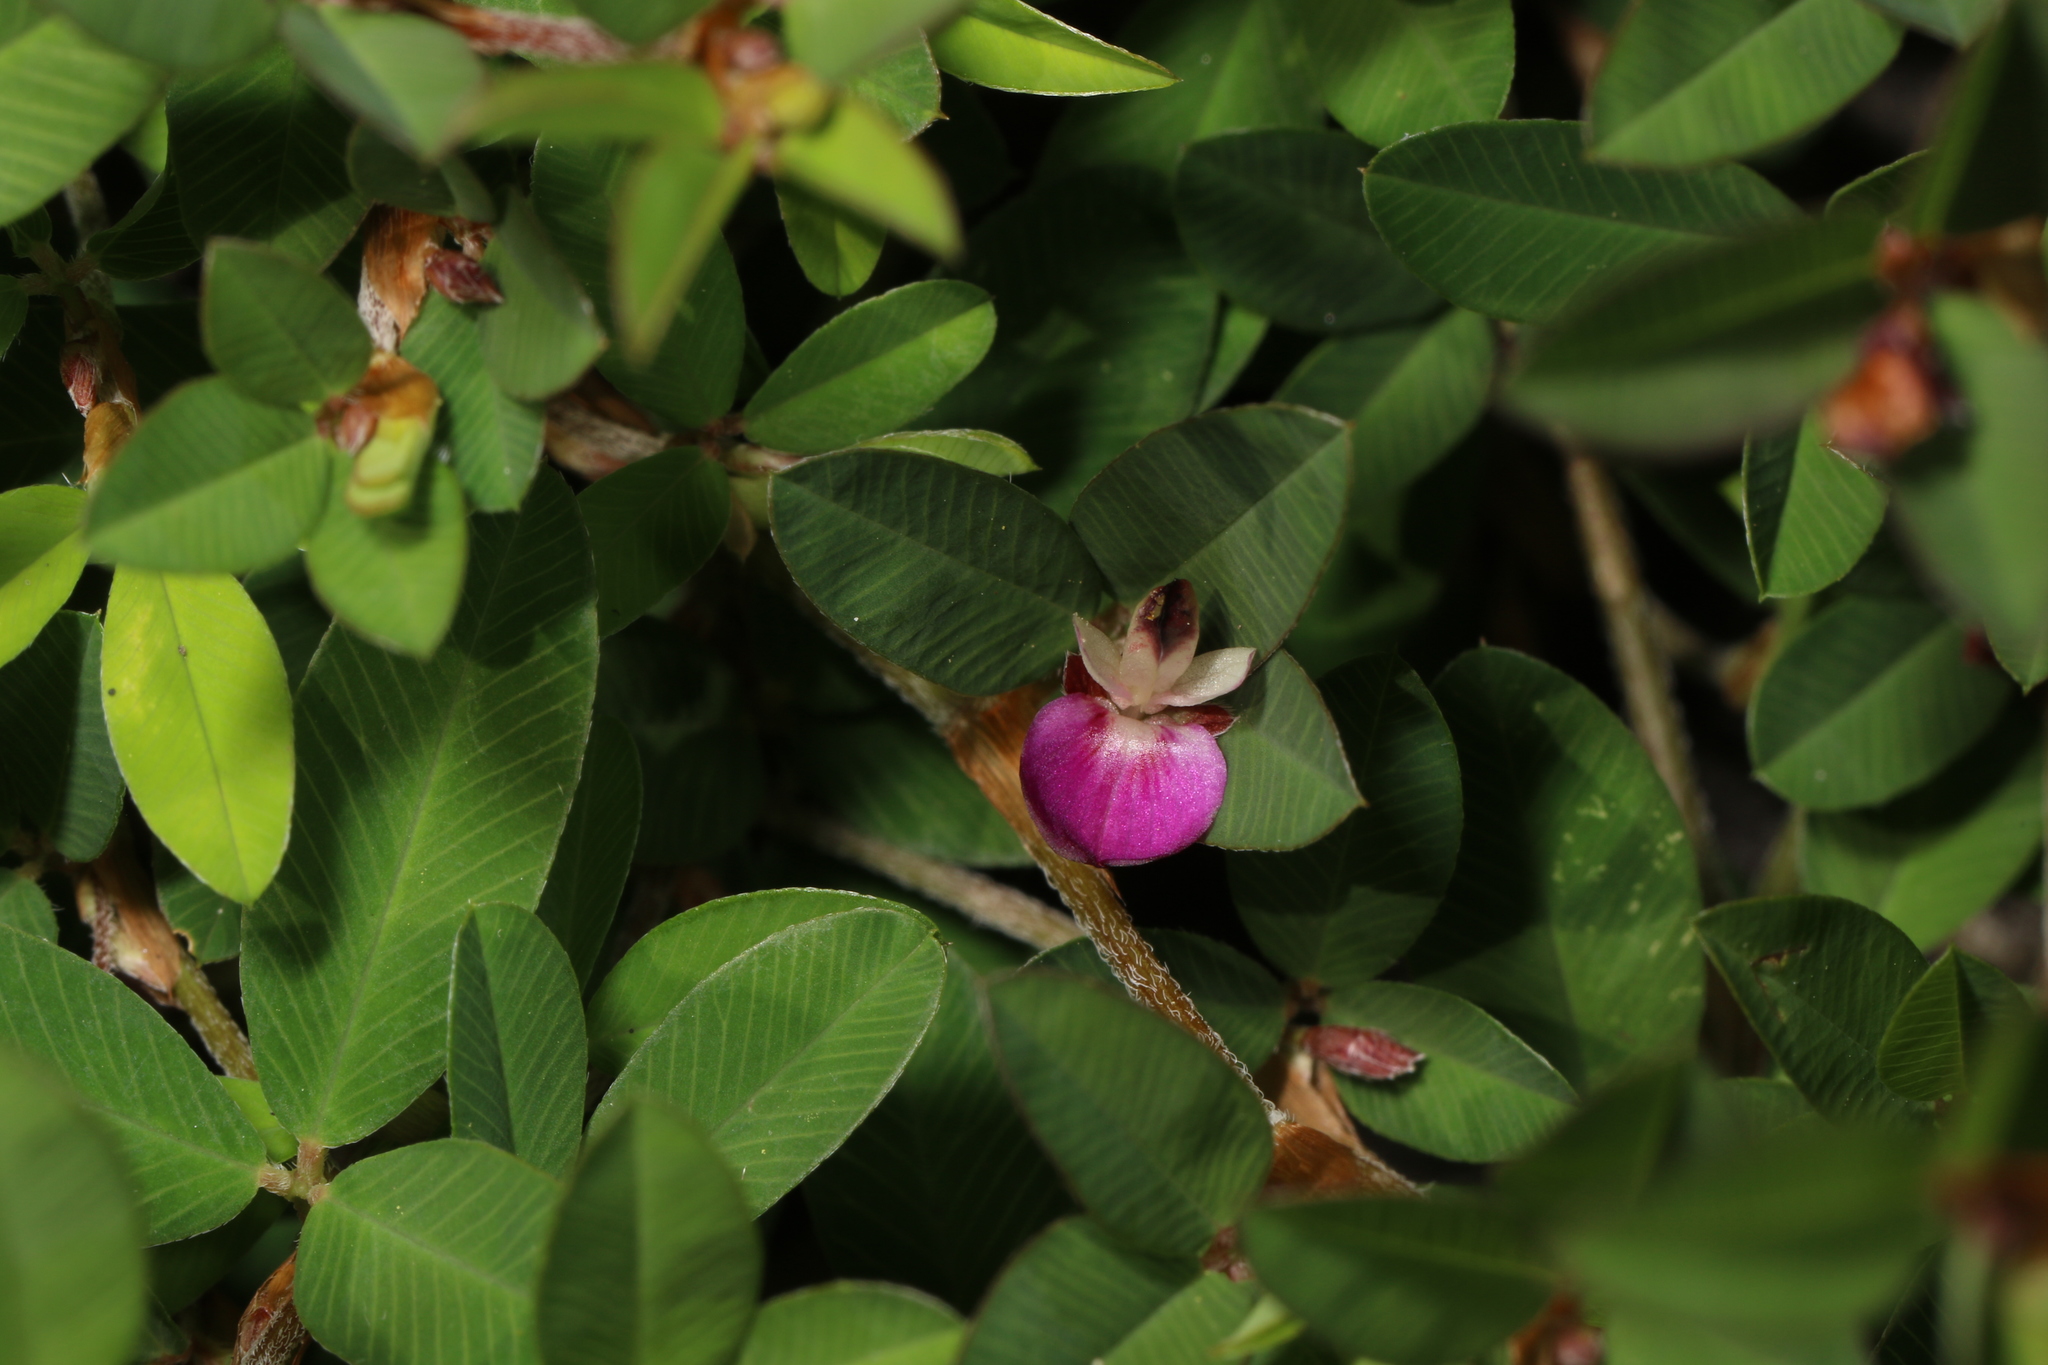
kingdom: Plantae
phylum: Tracheophyta
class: Magnoliopsida
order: Fabales
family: Fabaceae
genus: Kummerowia
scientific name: Kummerowia striata
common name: Japanese clover
